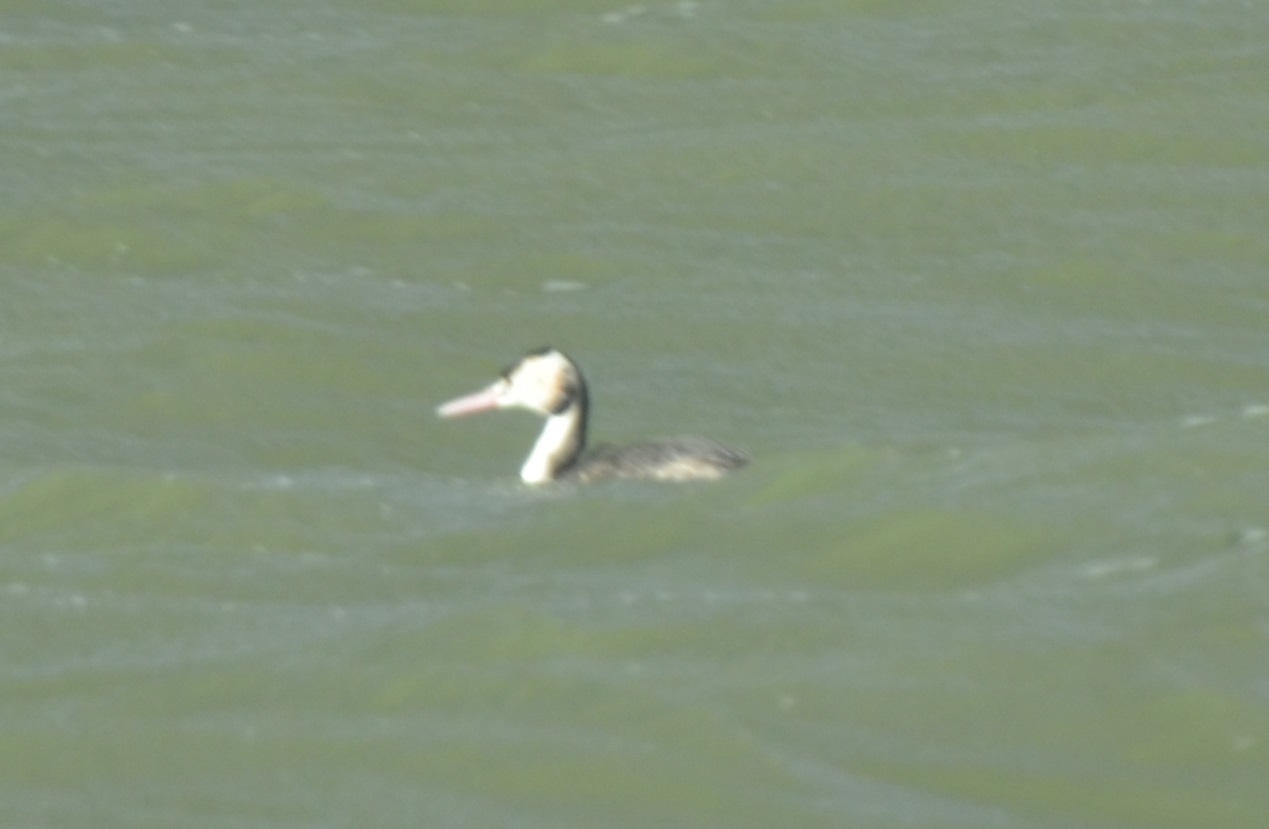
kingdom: Animalia
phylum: Chordata
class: Aves
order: Podicipediformes
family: Podicipedidae
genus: Podiceps
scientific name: Podiceps cristatus
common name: Great crested grebe
